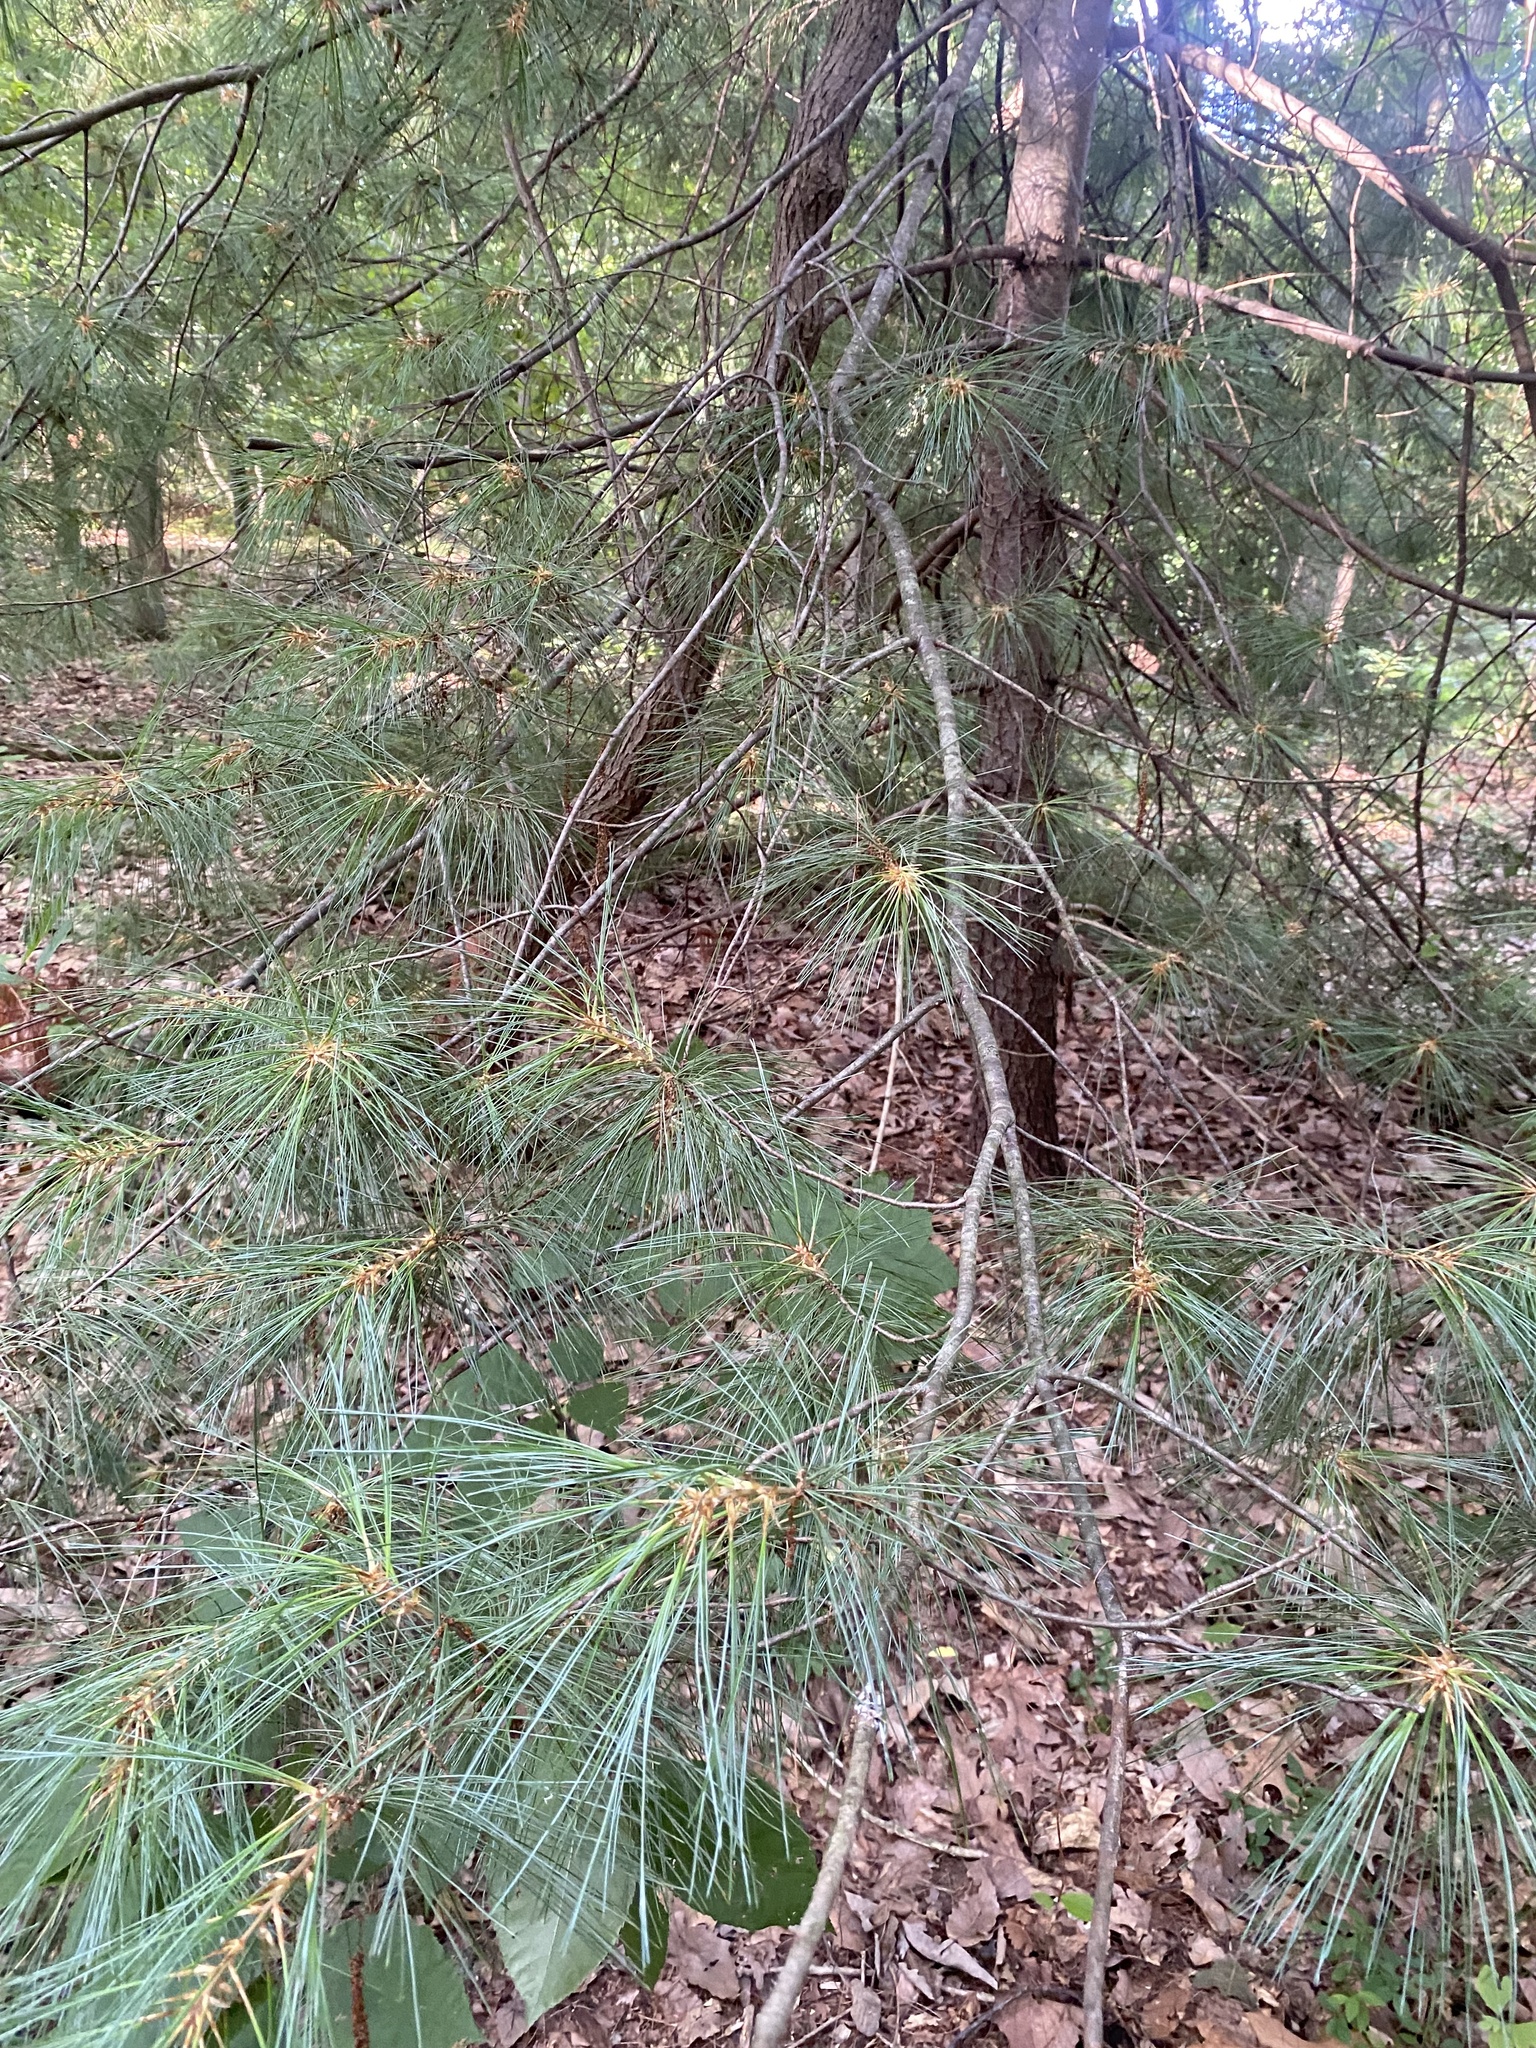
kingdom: Plantae
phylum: Tracheophyta
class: Pinopsida
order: Pinales
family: Pinaceae
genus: Pinus
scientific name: Pinus strobus
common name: Weymouth pine
